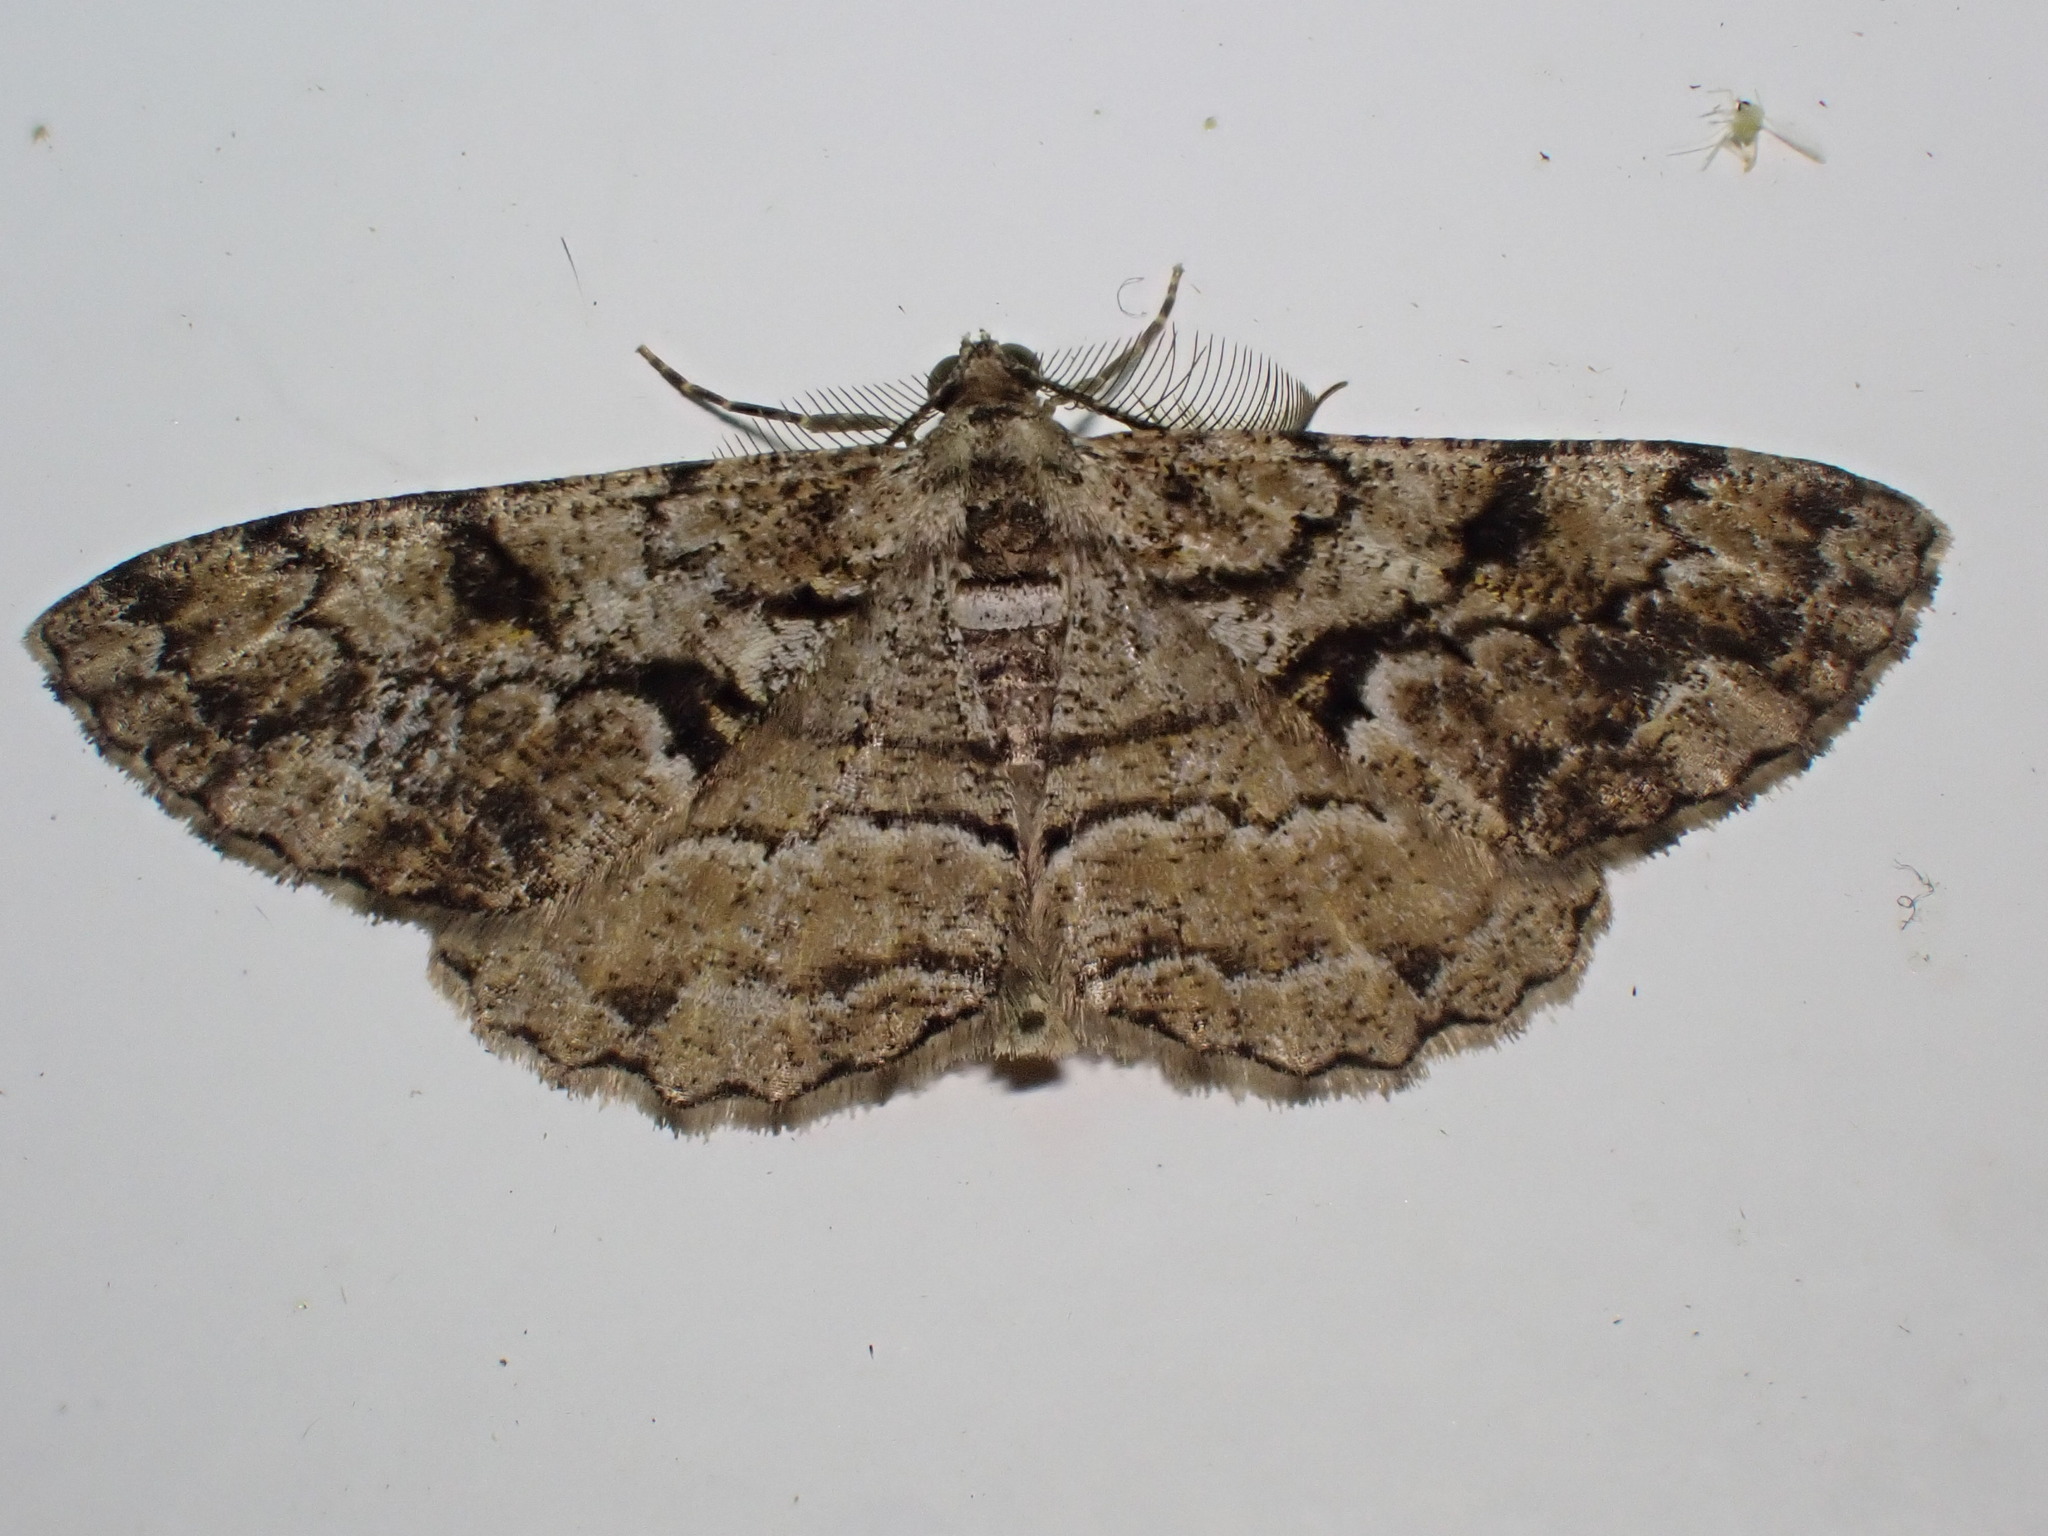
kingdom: Animalia
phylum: Arthropoda
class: Insecta
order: Lepidoptera
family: Geometridae
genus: Peribatodes
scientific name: Peribatodes secundaria
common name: Feathered beauty
